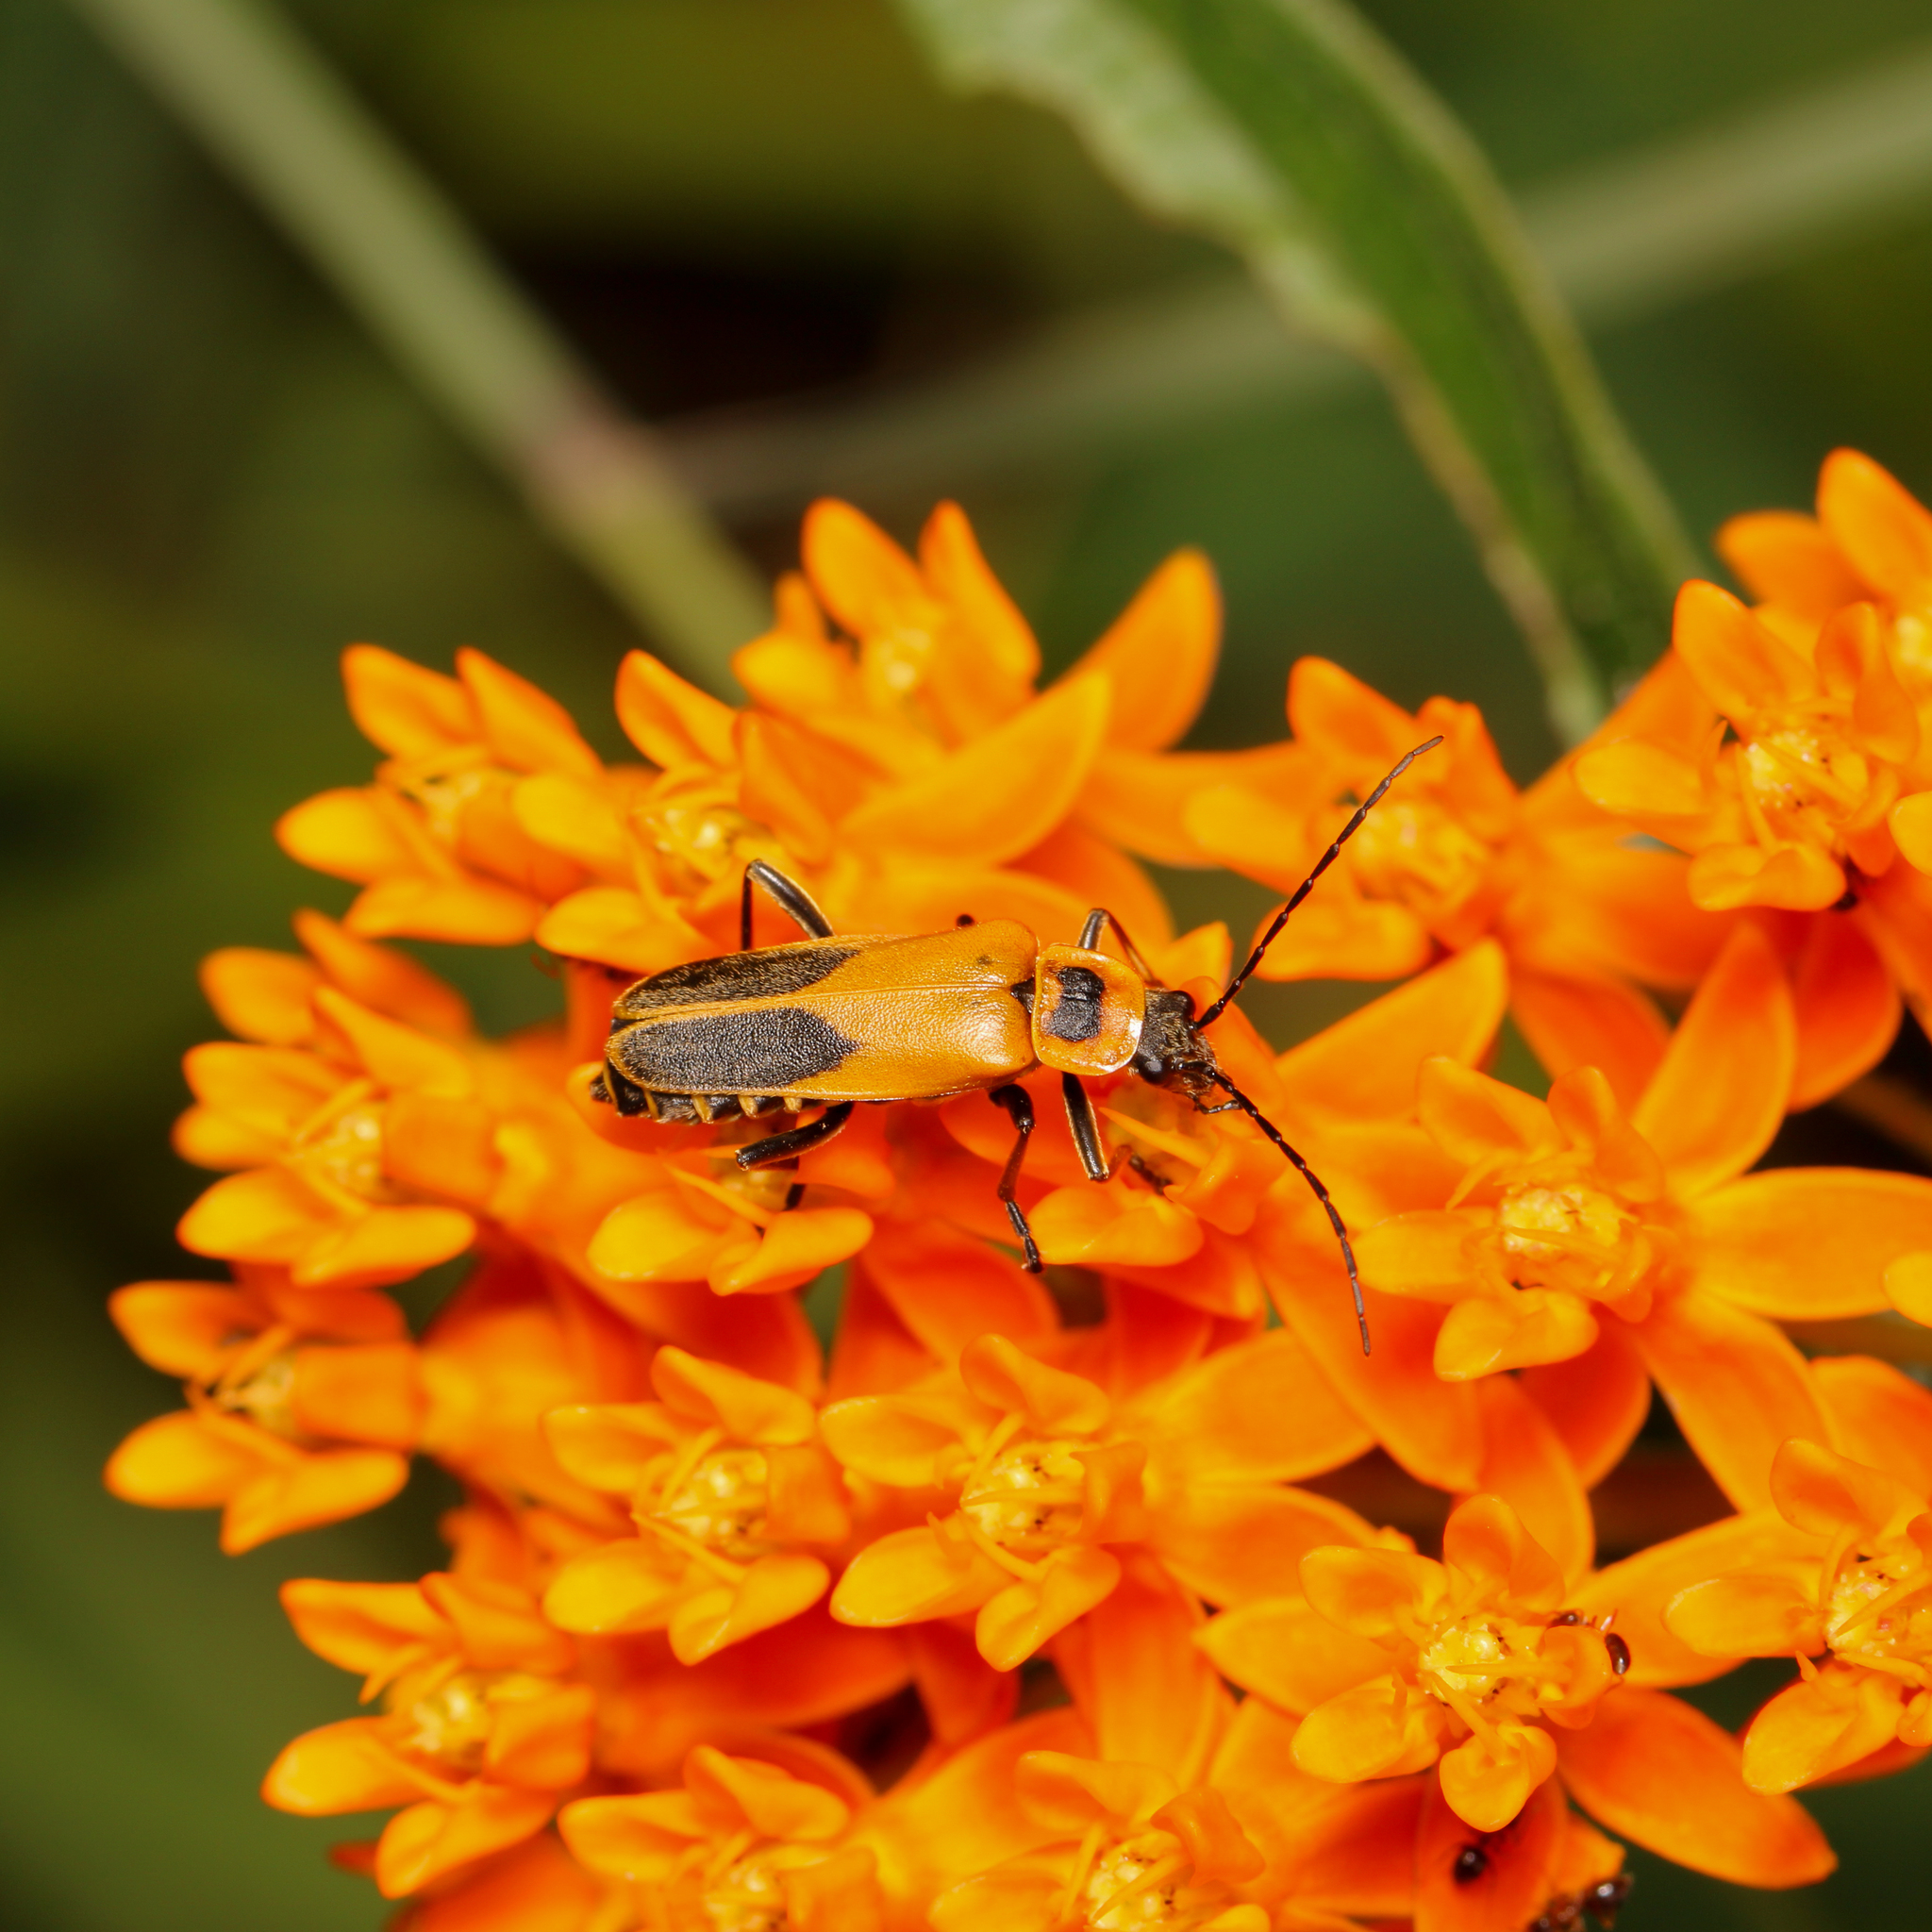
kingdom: Animalia
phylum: Arthropoda
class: Insecta
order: Coleoptera
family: Cantharidae
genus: Chauliognathus
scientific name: Chauliognathus pensylvanicus
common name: Goldenrod soldier beetle
